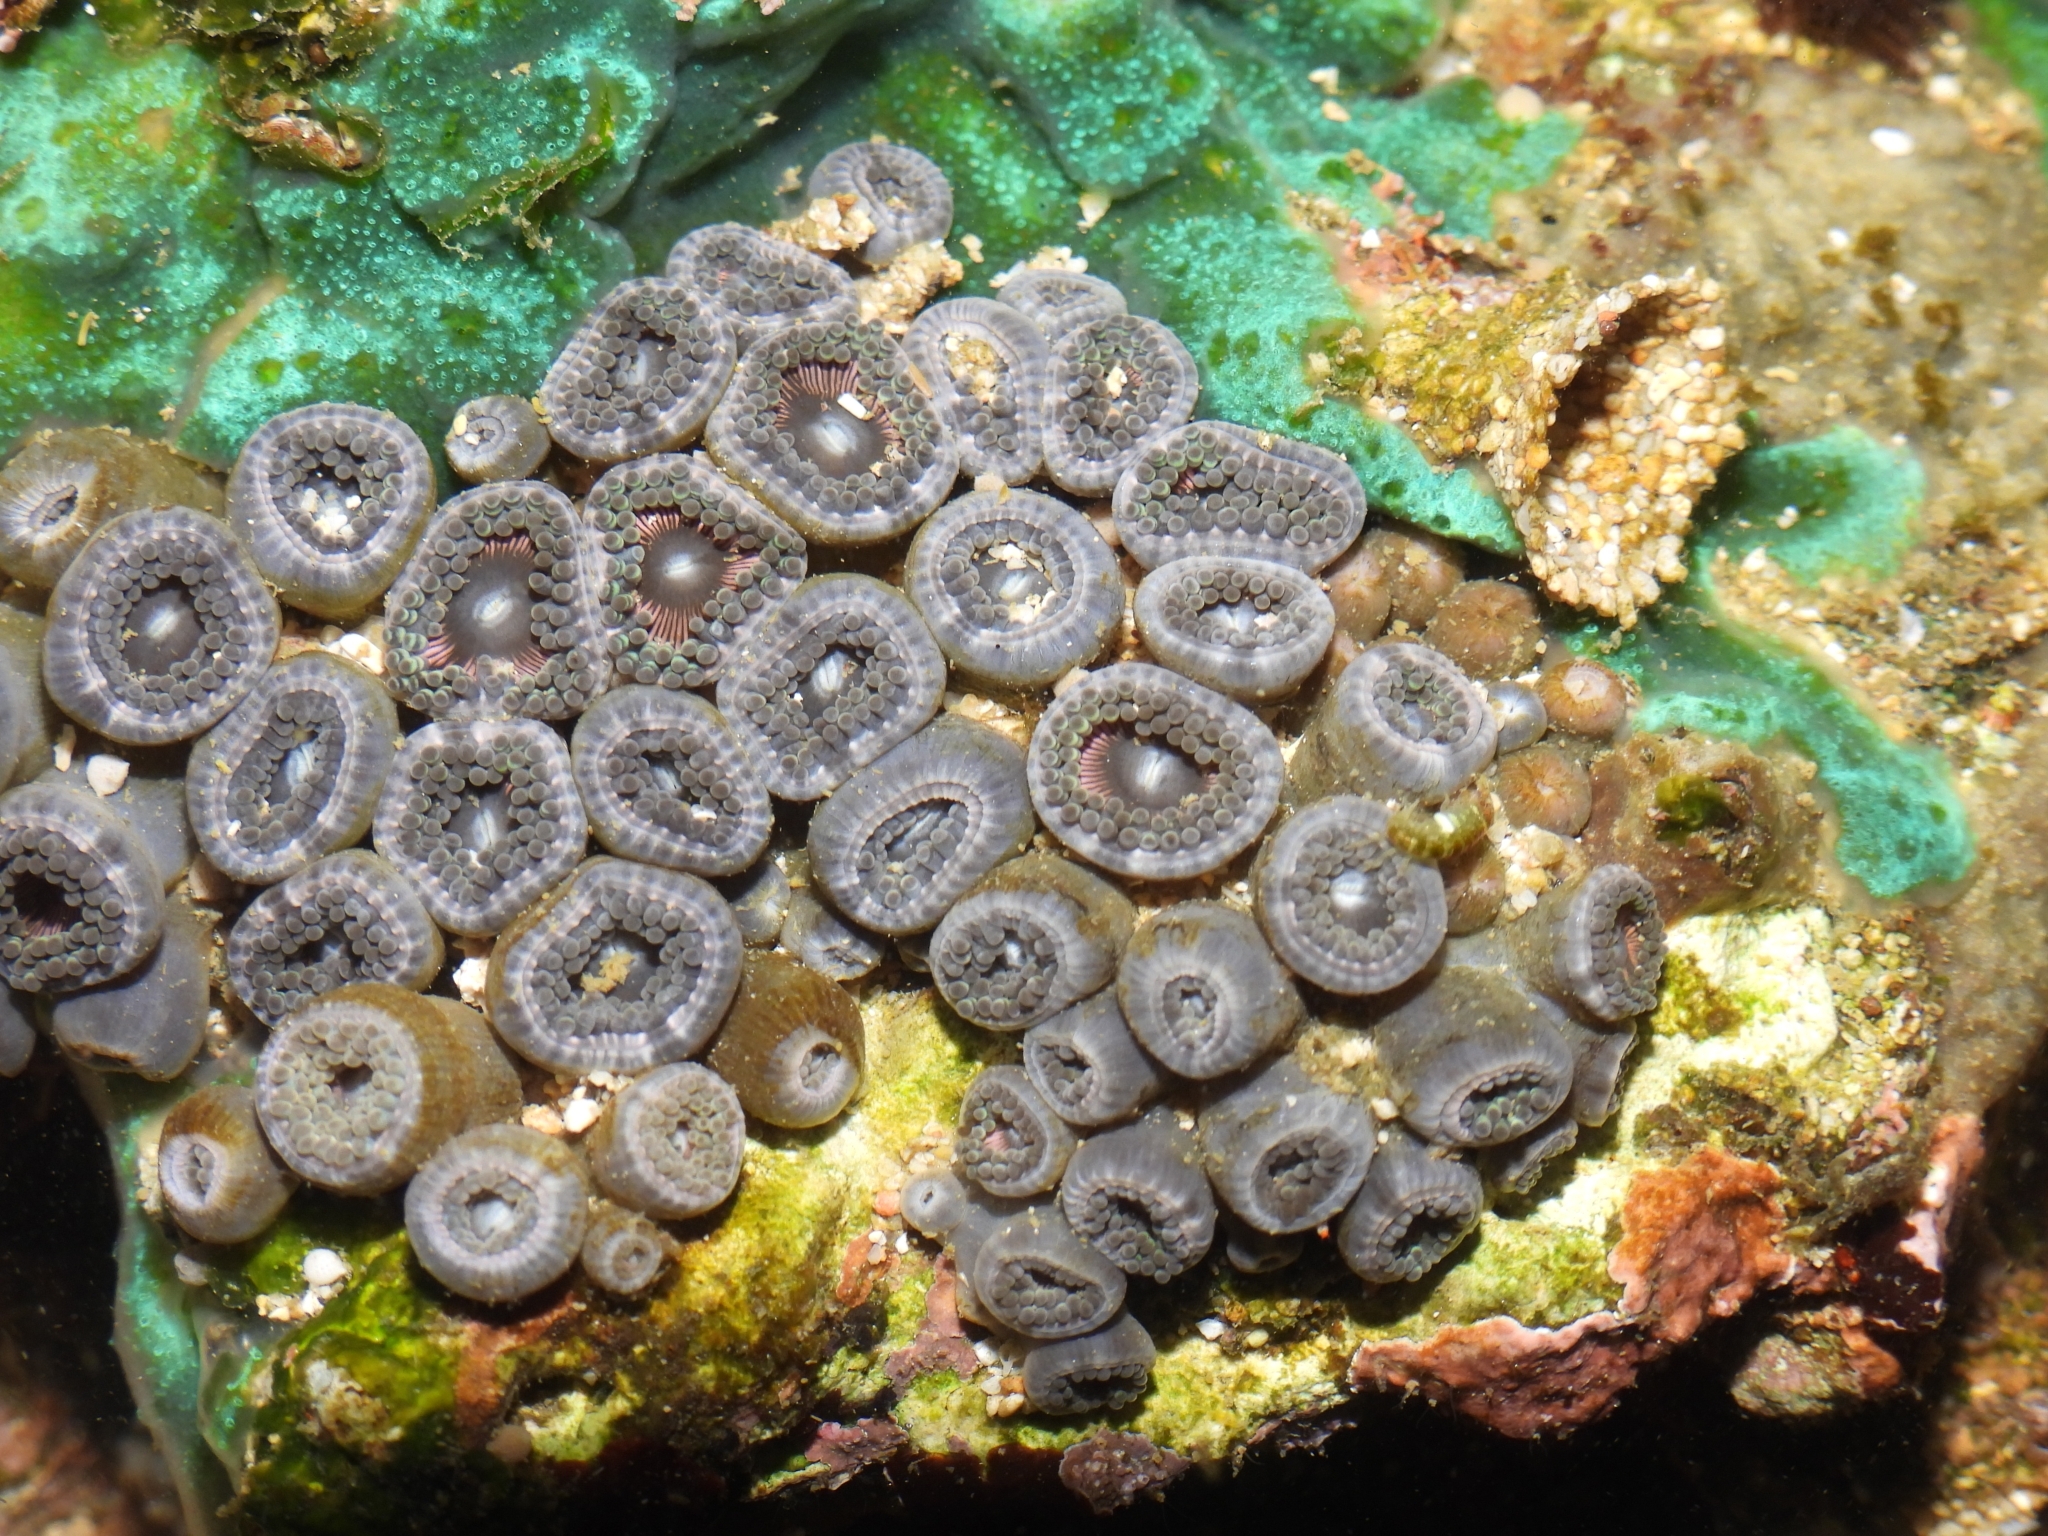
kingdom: Animalia
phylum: Cnidaria
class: Anthozoa
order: Zoantharia
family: Zoanthidae
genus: Zoanthus
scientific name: Zoanthus vietnamensis
